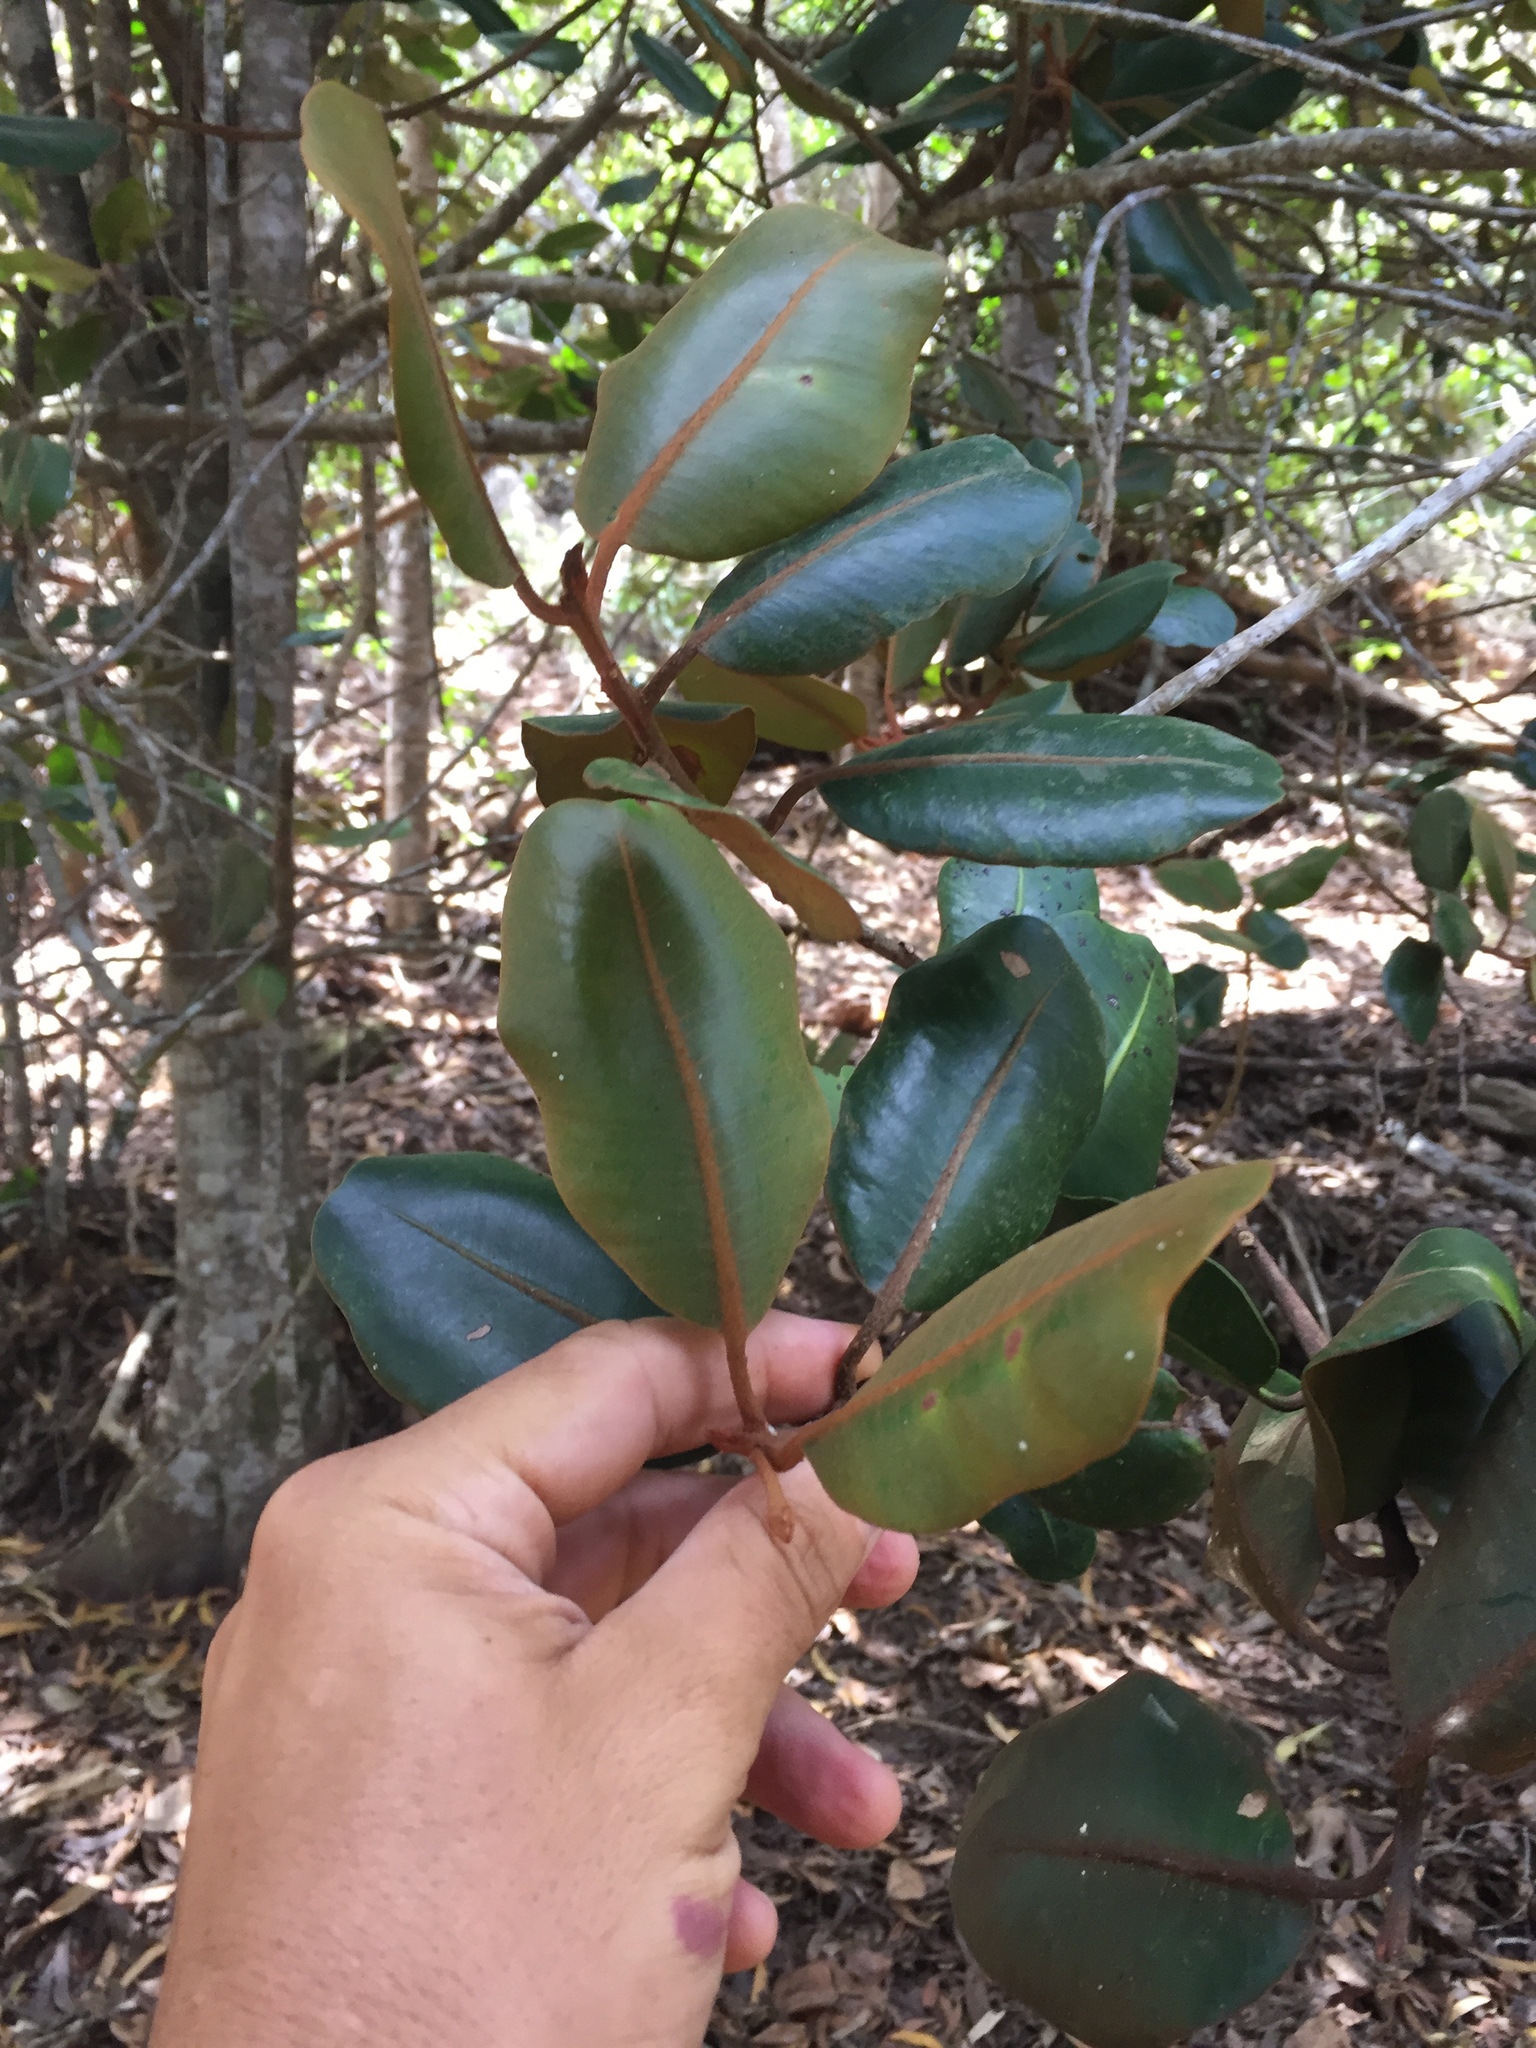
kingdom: Plantae
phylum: Tracheophyta
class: Magnoliopsida
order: Ericales
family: Sapotaceae
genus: Planchonella
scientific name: Planchonella sandwicensis
